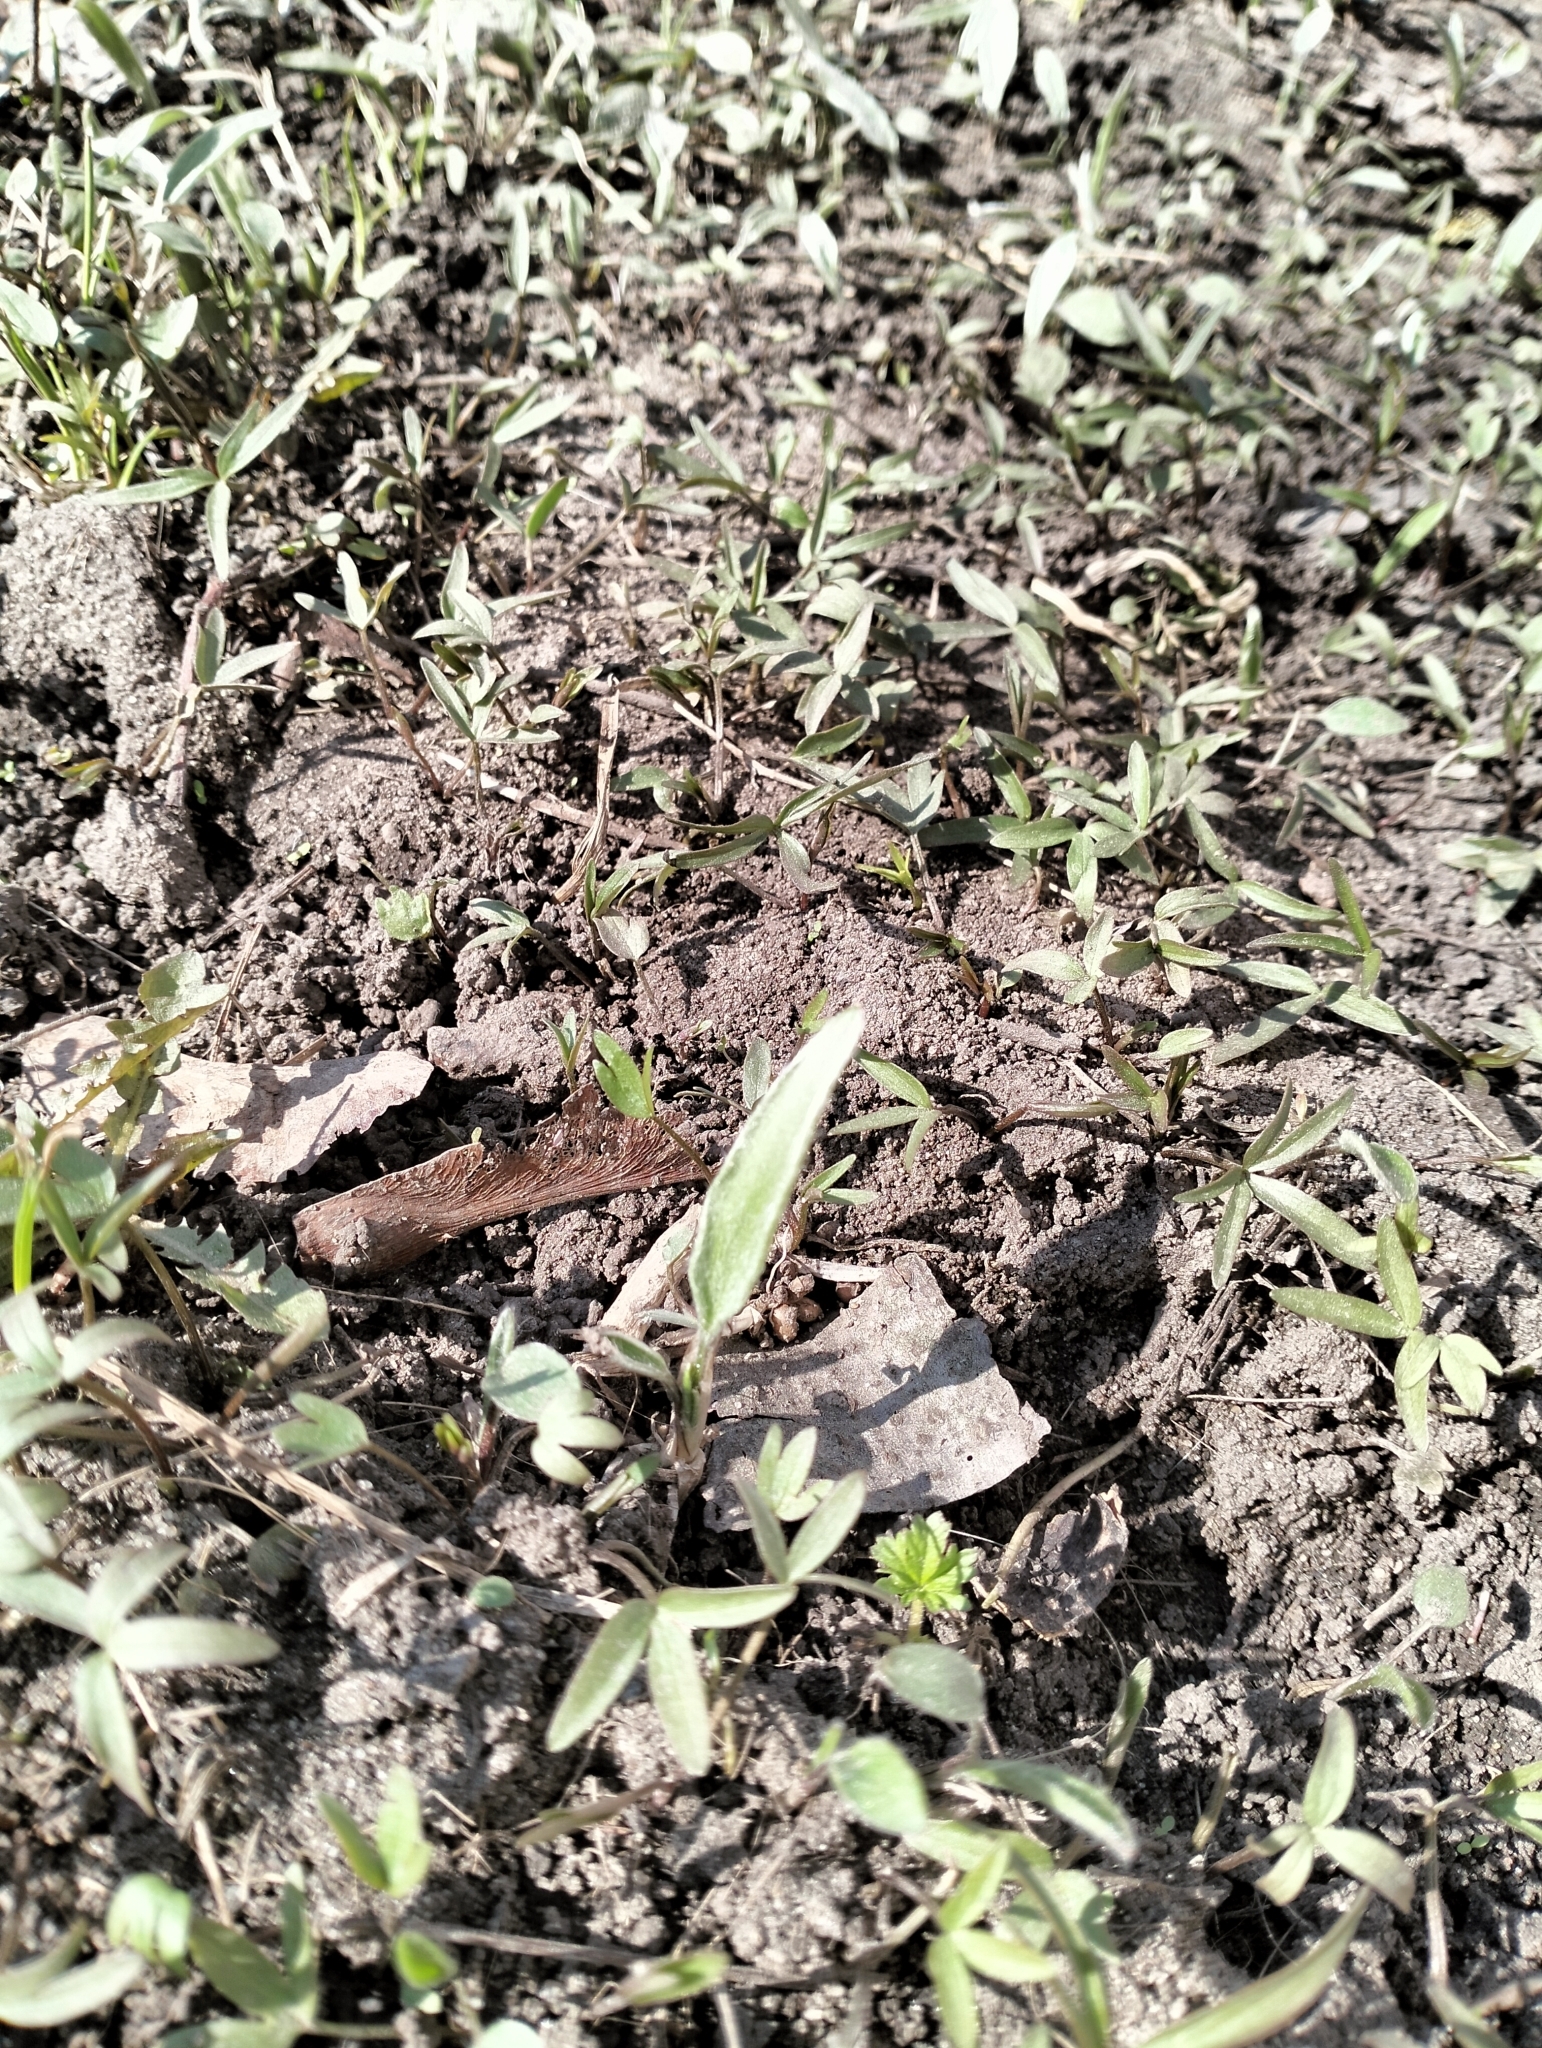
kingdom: Plantae
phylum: Tracheophyta
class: Magnoliopsida
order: Ranunculales
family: Ranunculaceae
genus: Ranunculus
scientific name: Ranunculus illyricus
